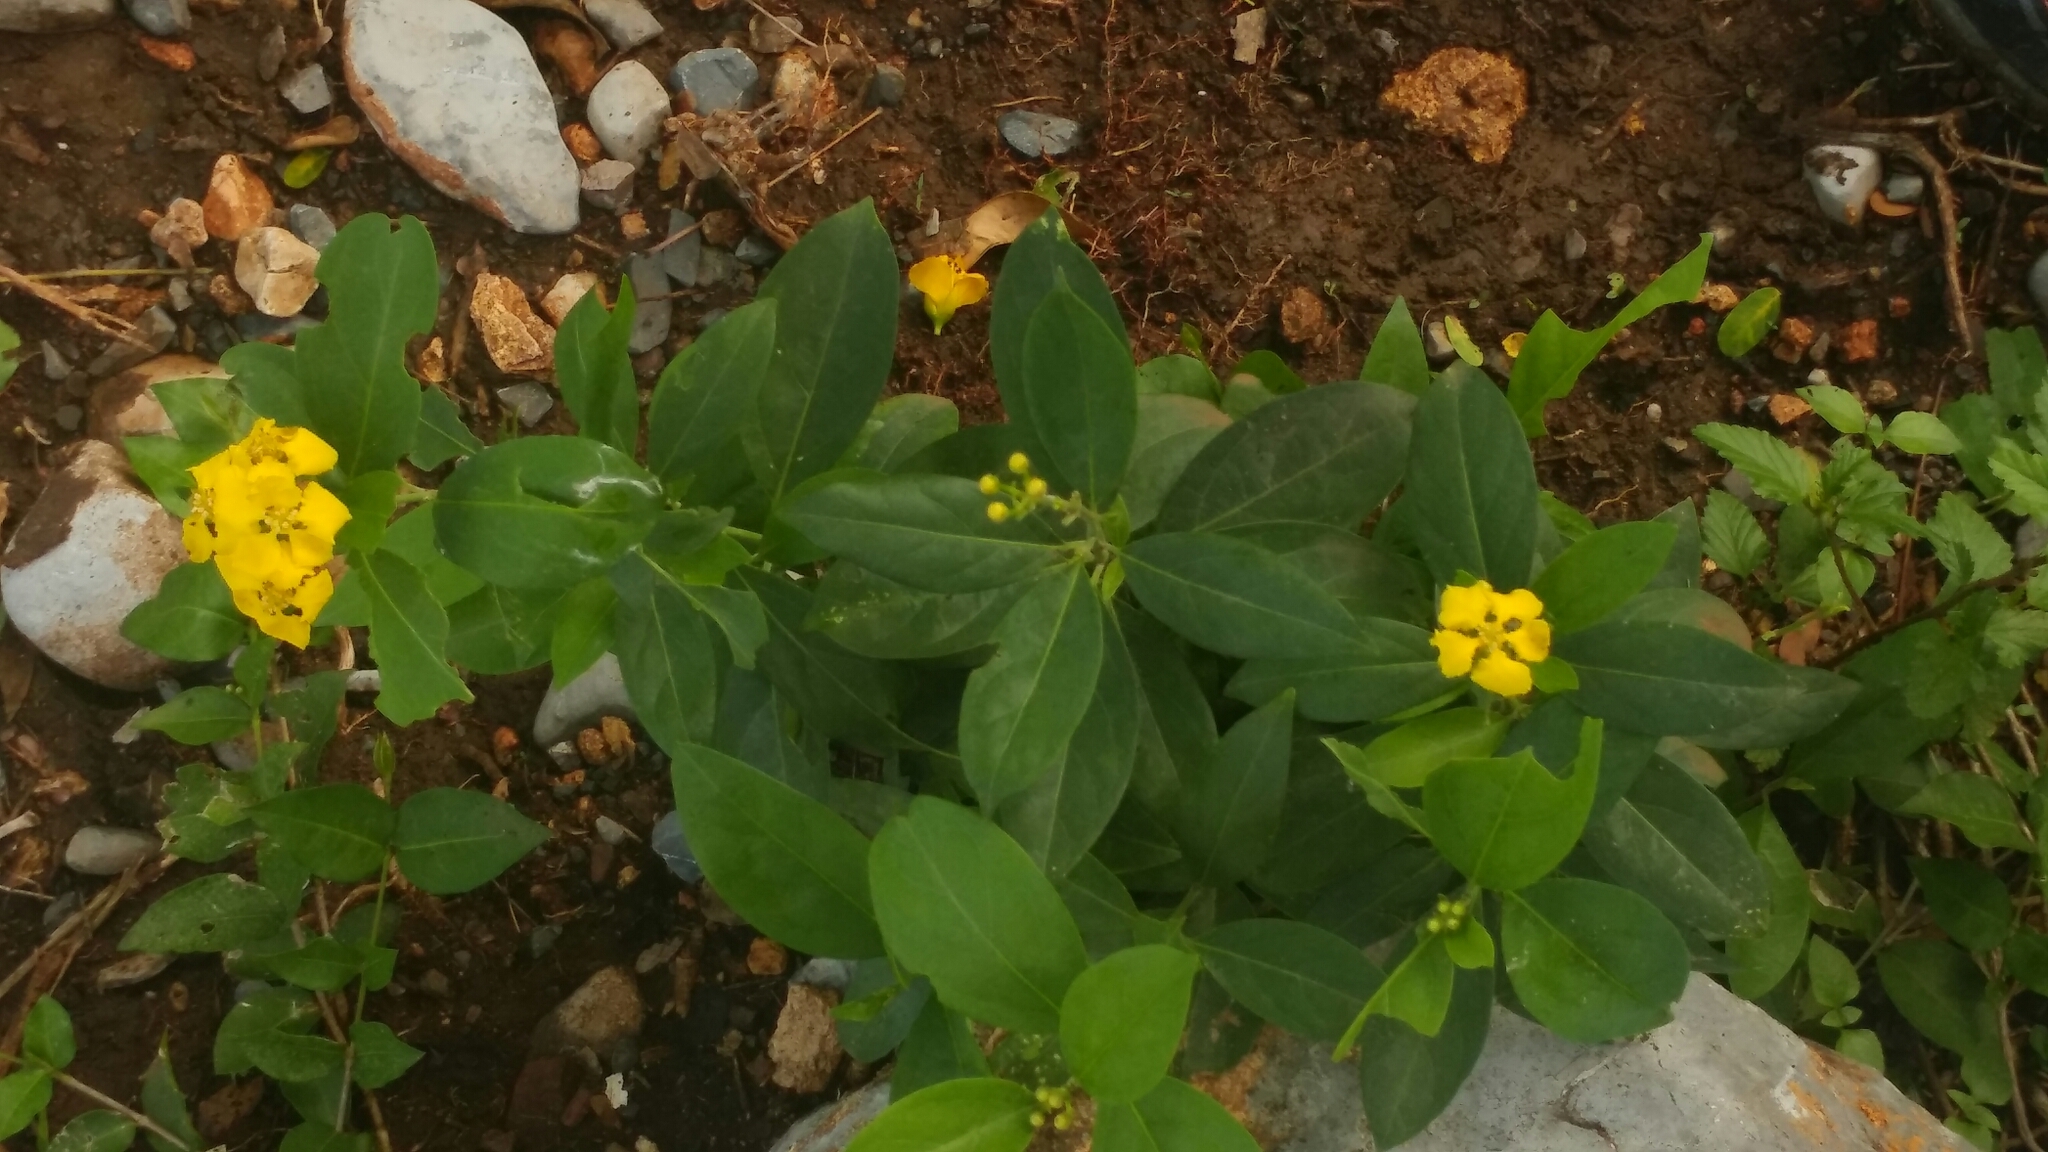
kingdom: Plantae
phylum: Tracheophyta
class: Magnoliopsida
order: Malpighiales
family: Malpighiaceae
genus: Callaeum
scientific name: Callaeum macropterum
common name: Mexican butterfly-vine
